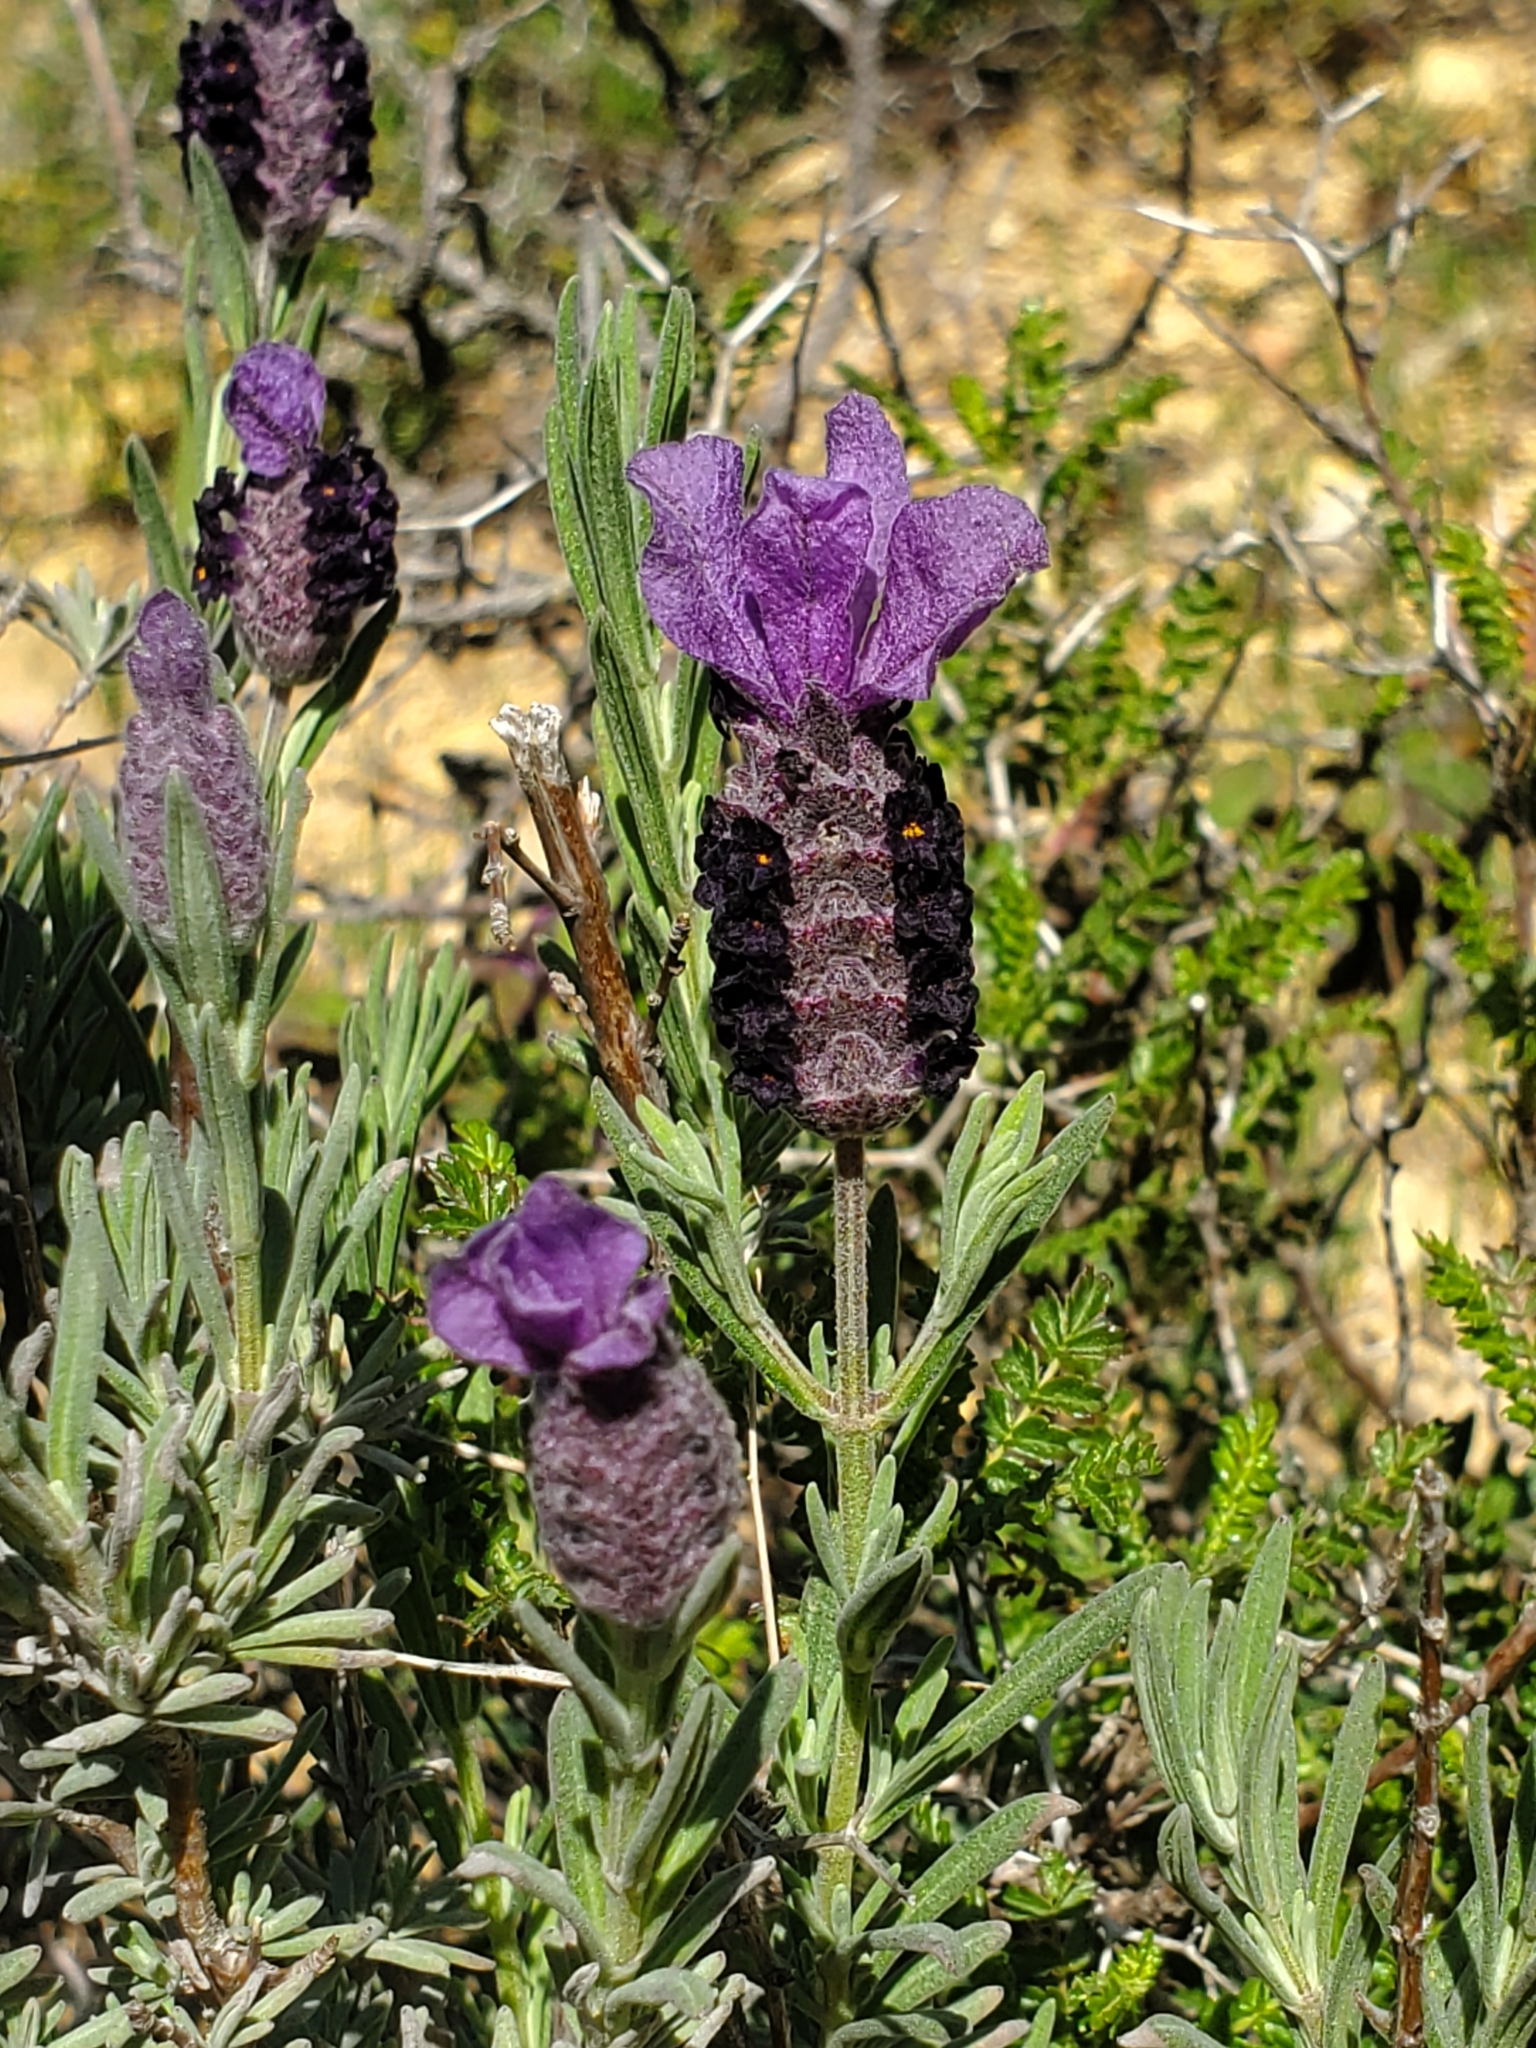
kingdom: Plantae
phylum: Tracheophyta
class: Magnoliopsida
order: Lamiales
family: Lamiaceae
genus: Lavandula
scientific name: Lavandula stoechas
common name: French lavender
